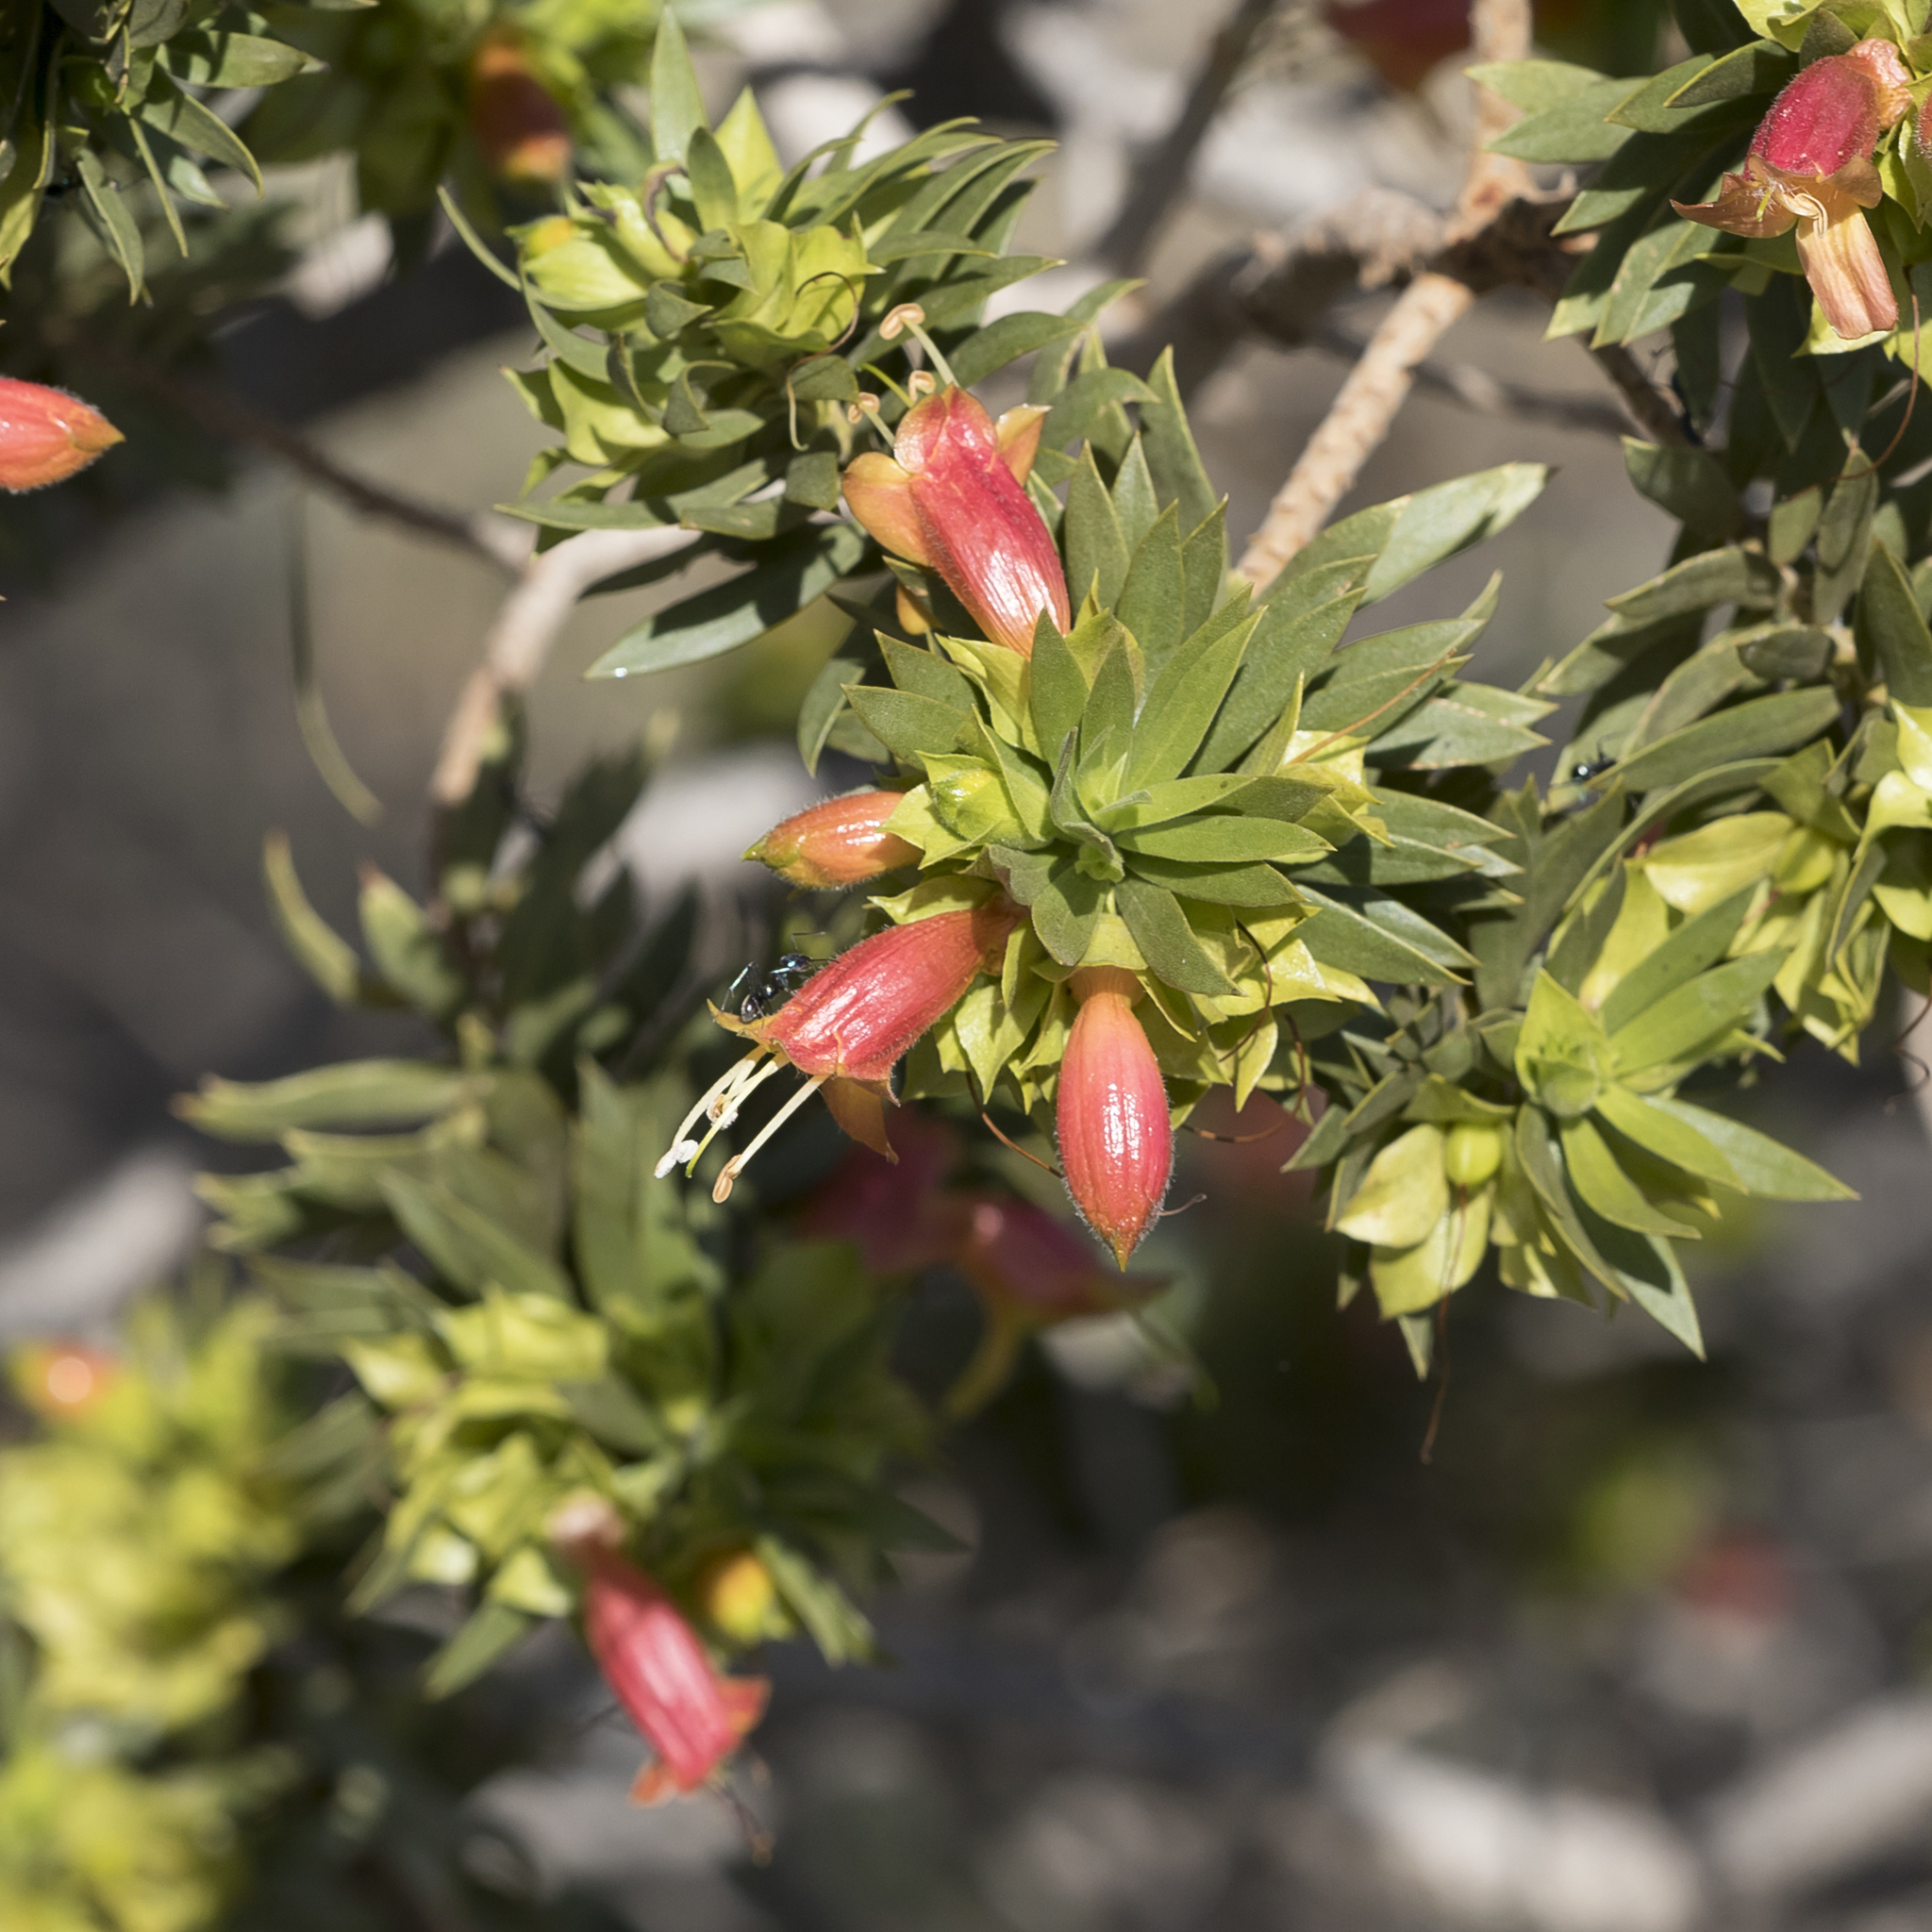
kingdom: Plantae
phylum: Tracheophyta
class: Magnoliopsida
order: Lamiales
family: Scrophulariaceae
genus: Eremophila
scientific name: Eremophila duttonii
